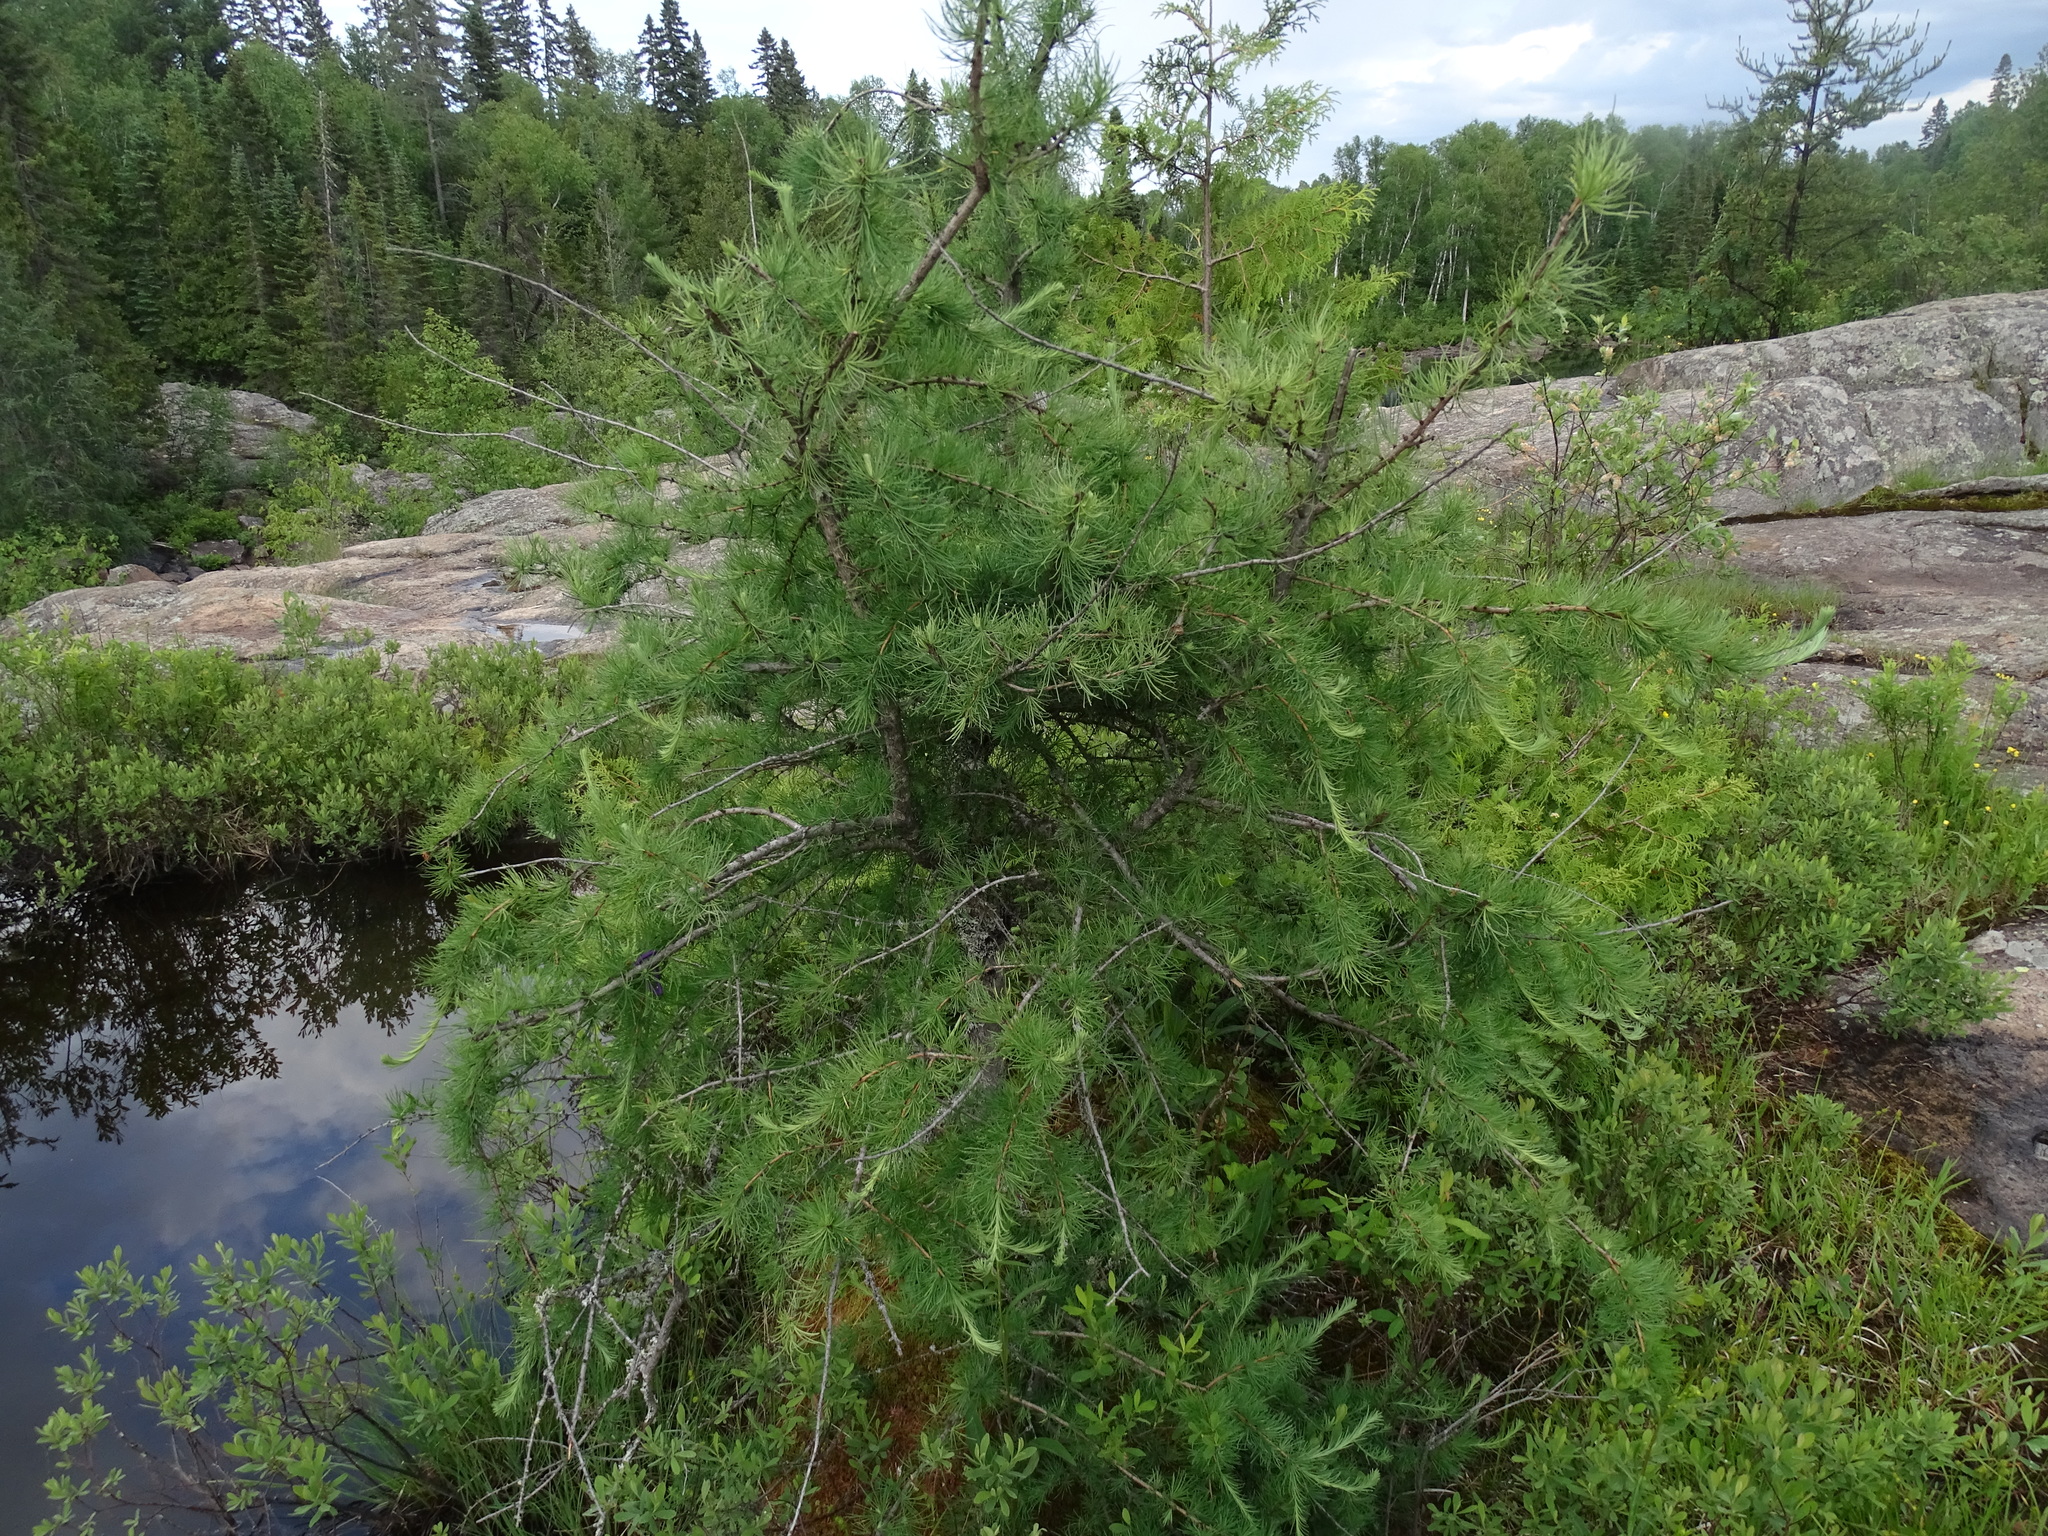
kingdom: Plantae
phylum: Tracheophyta
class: Pinopsida
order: Pinales
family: Pinaceae
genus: Larix
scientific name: Larix laricina
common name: American larch
